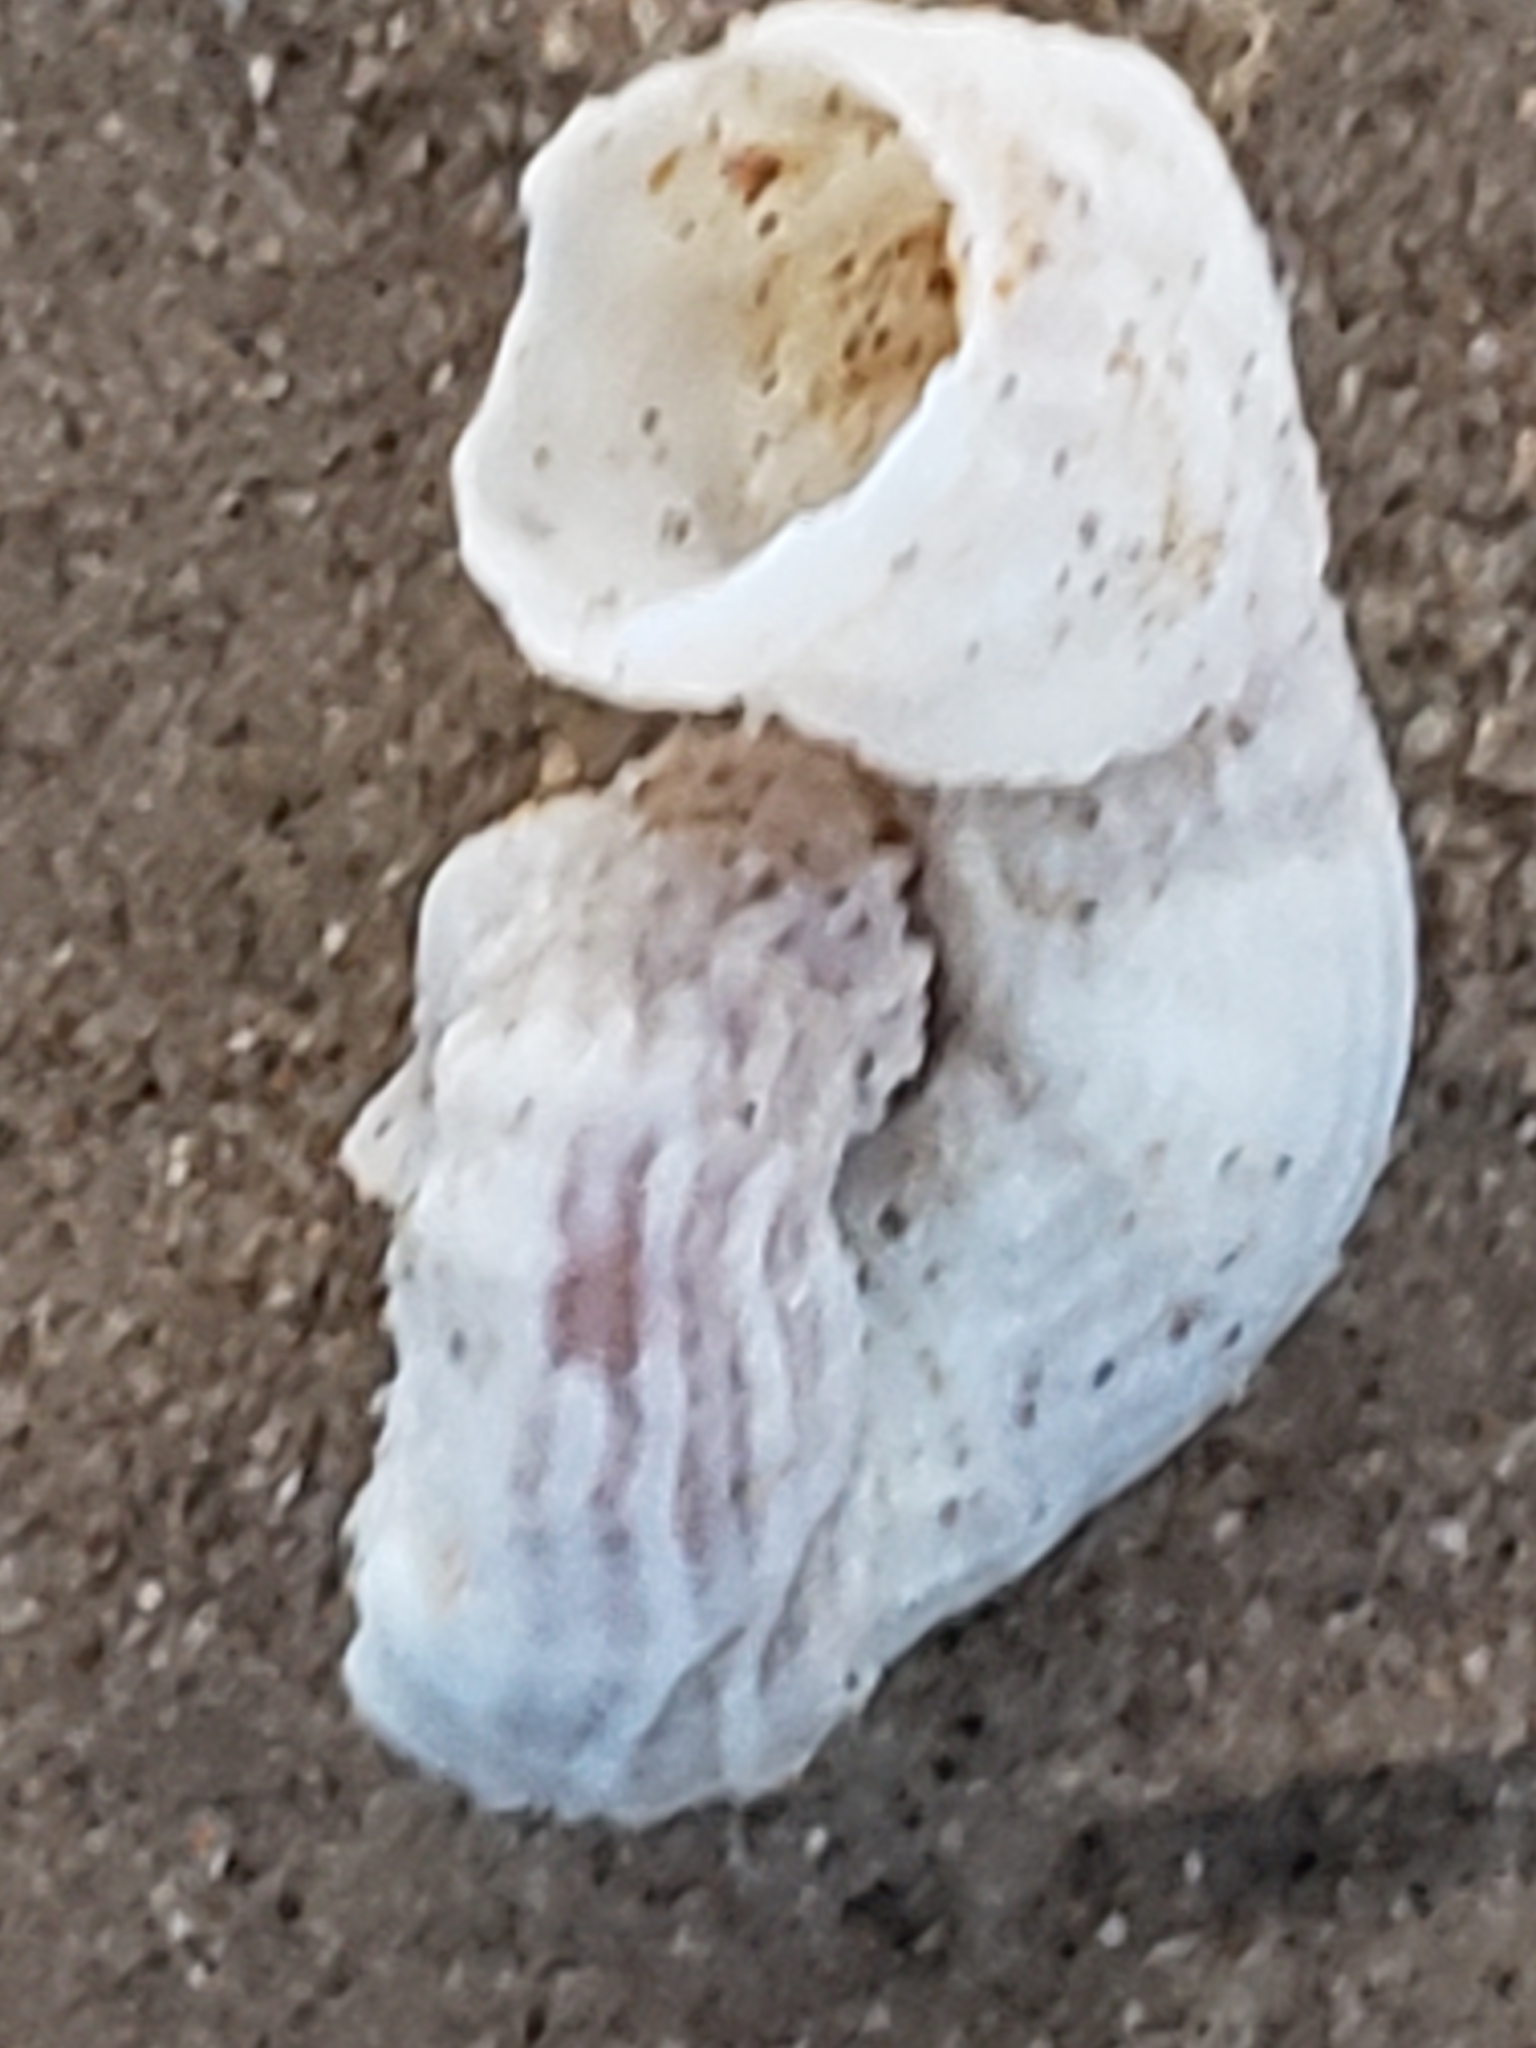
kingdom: Animalia
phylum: Mollusca
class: Gastropoda
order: Littorinimorpha
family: Vermetidae
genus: Thylacodes
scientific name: Thylacodes squamigerus
